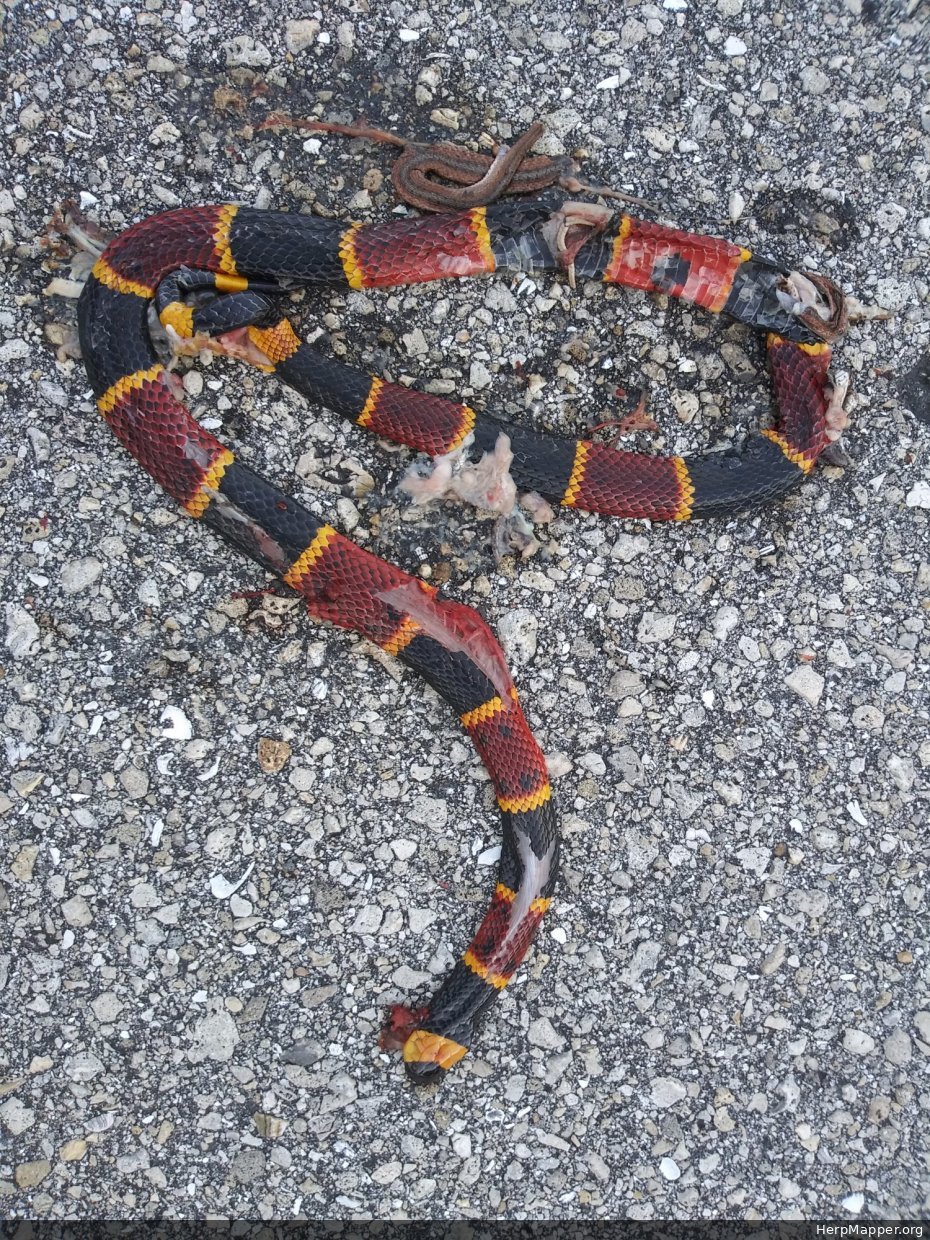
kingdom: Animalia
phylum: Chordata
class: Squamata
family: Elapidae
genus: Micrurus
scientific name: Micrurus fulvius
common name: Eastern coral snake
